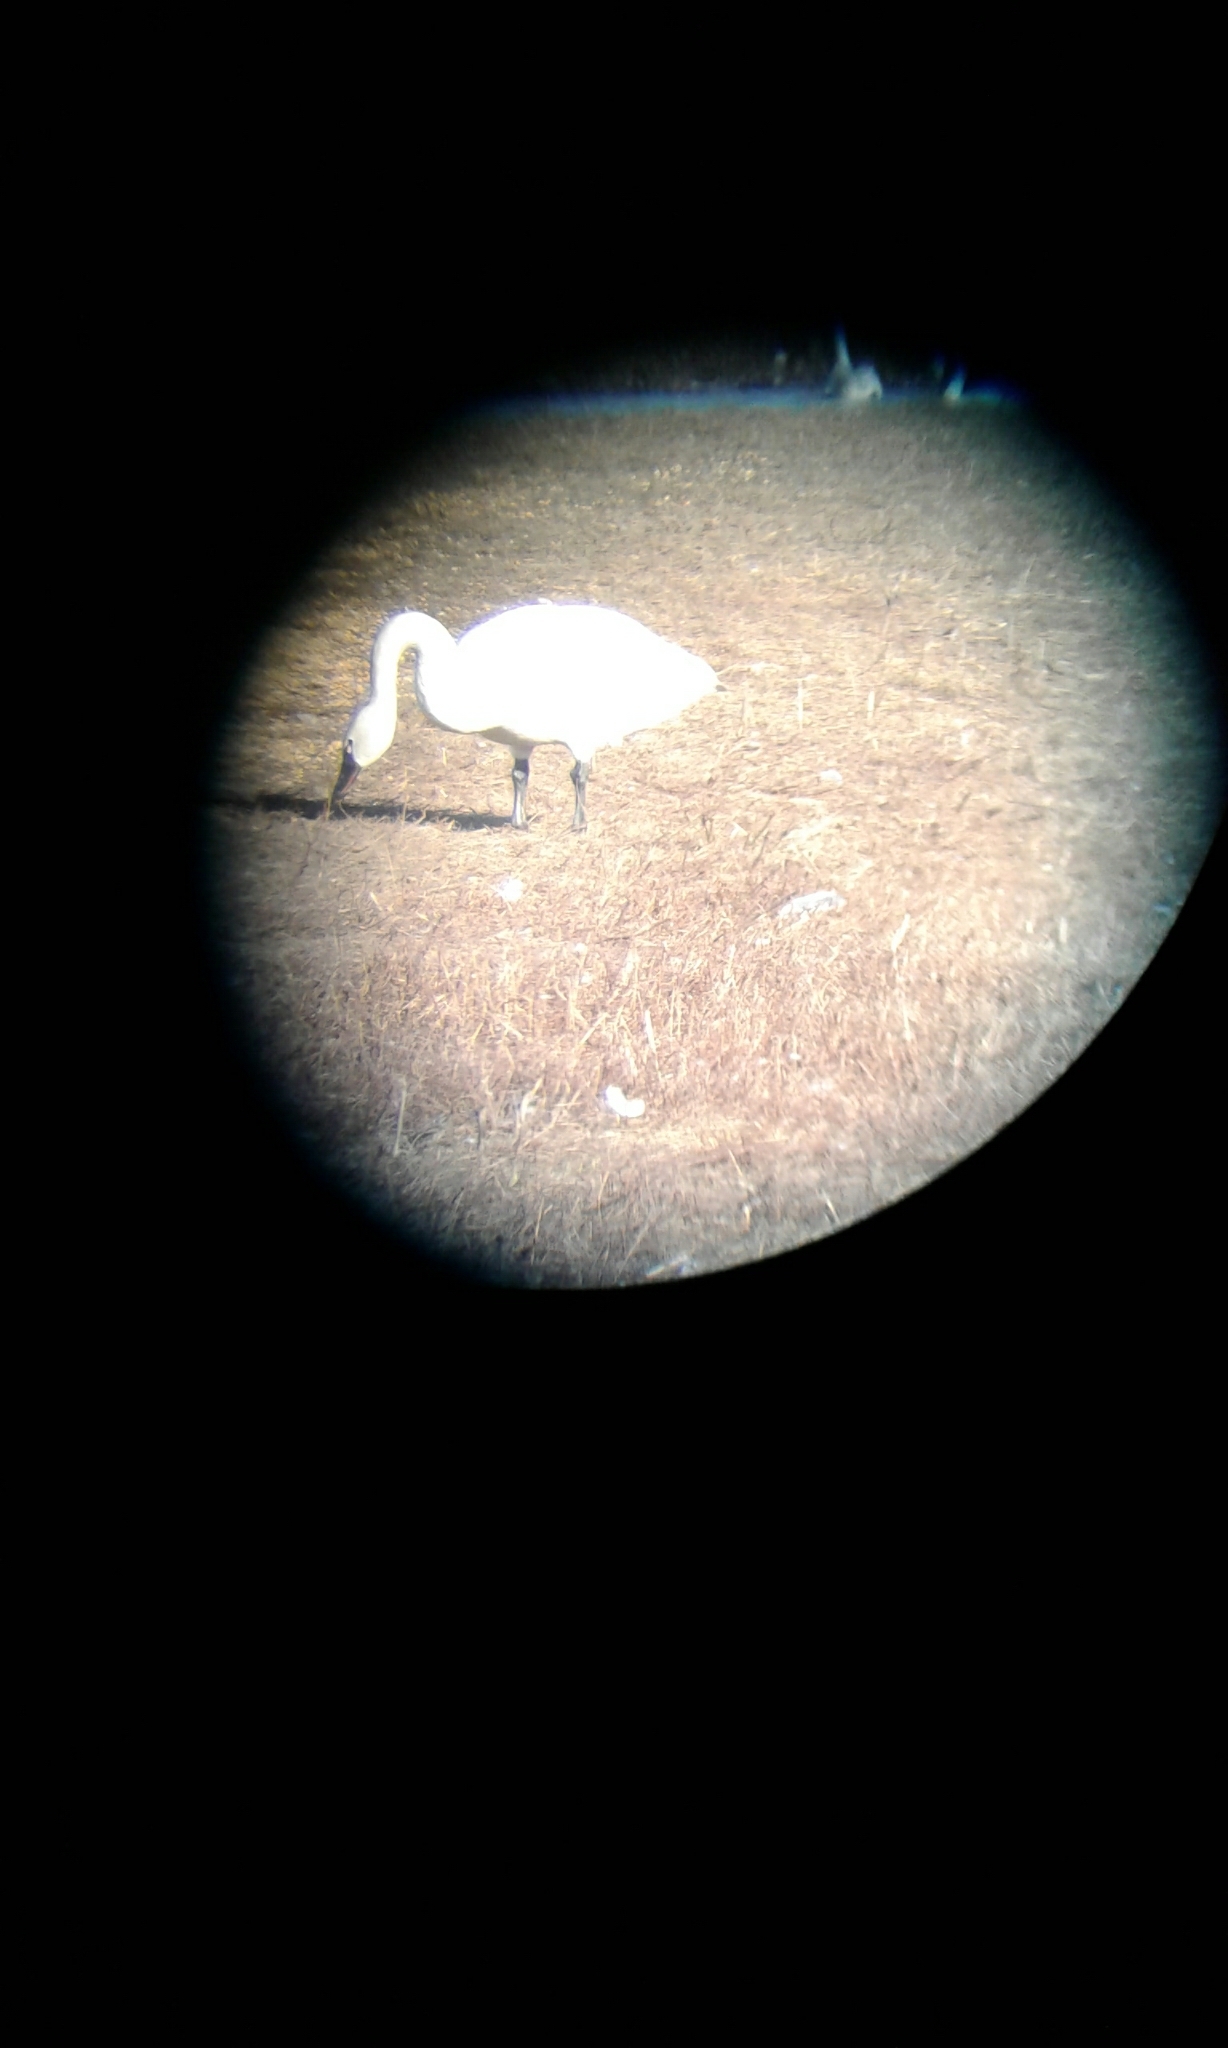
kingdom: Animalia
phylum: Chordata
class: Aves
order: Anseriformes
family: Anatidae
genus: Cygnus
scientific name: Cygnus columbianus
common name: Tundra swan
